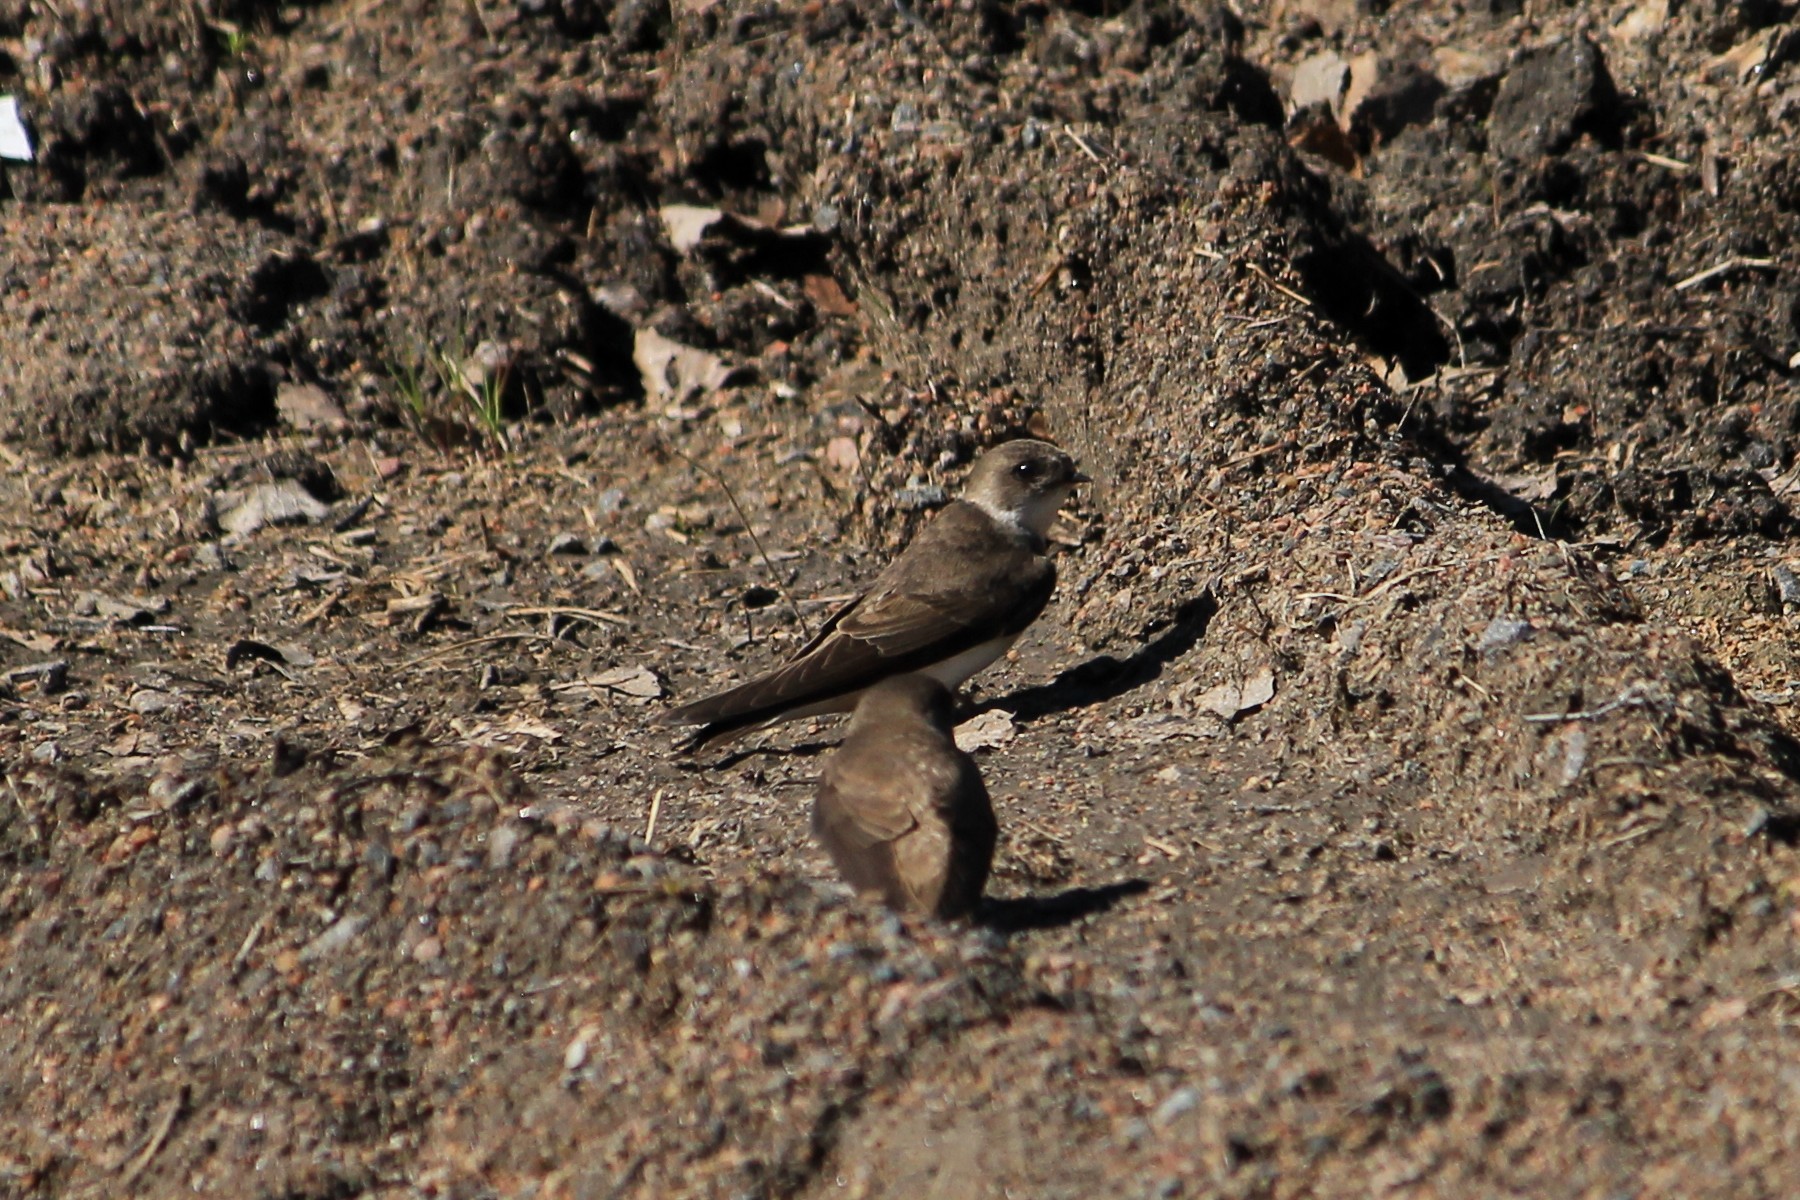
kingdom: Animalia
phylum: Chordata
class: Aves
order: Passeriformes
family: Hirundinidae
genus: Riparia
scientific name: Riparia riparia
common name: Sand martin
